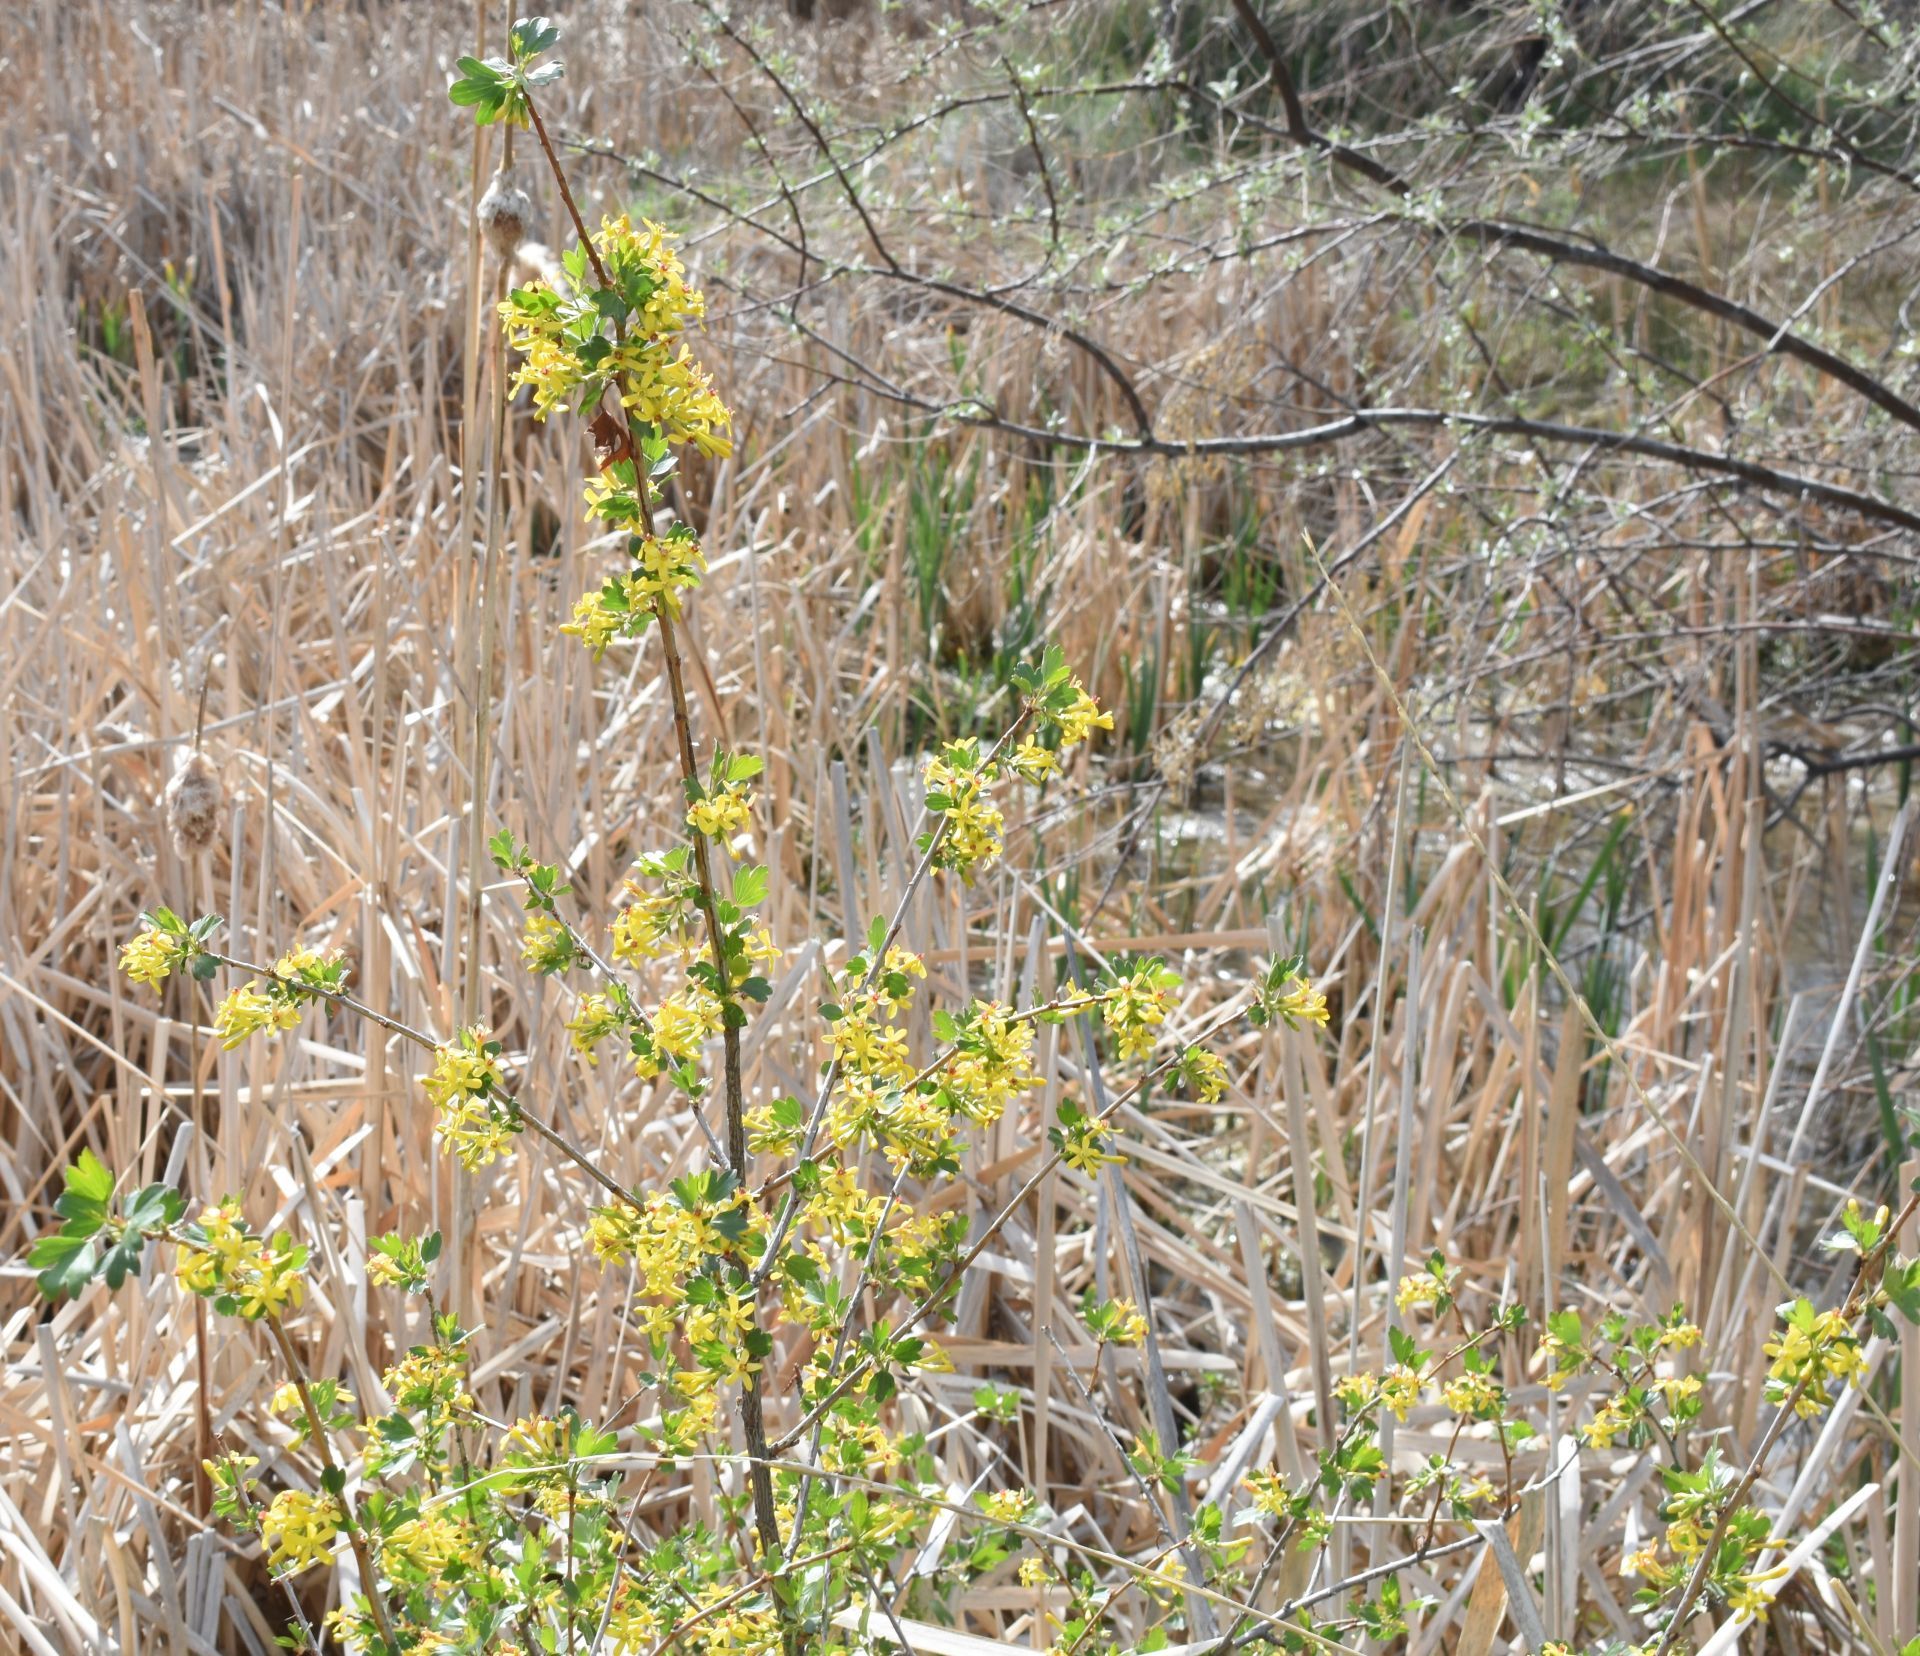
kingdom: Plantae
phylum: Tracheophyta
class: Magnoliopsida
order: Saxifragales
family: Grossulariaceae
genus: Ribes
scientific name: Ribes aureum
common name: Golden currant
